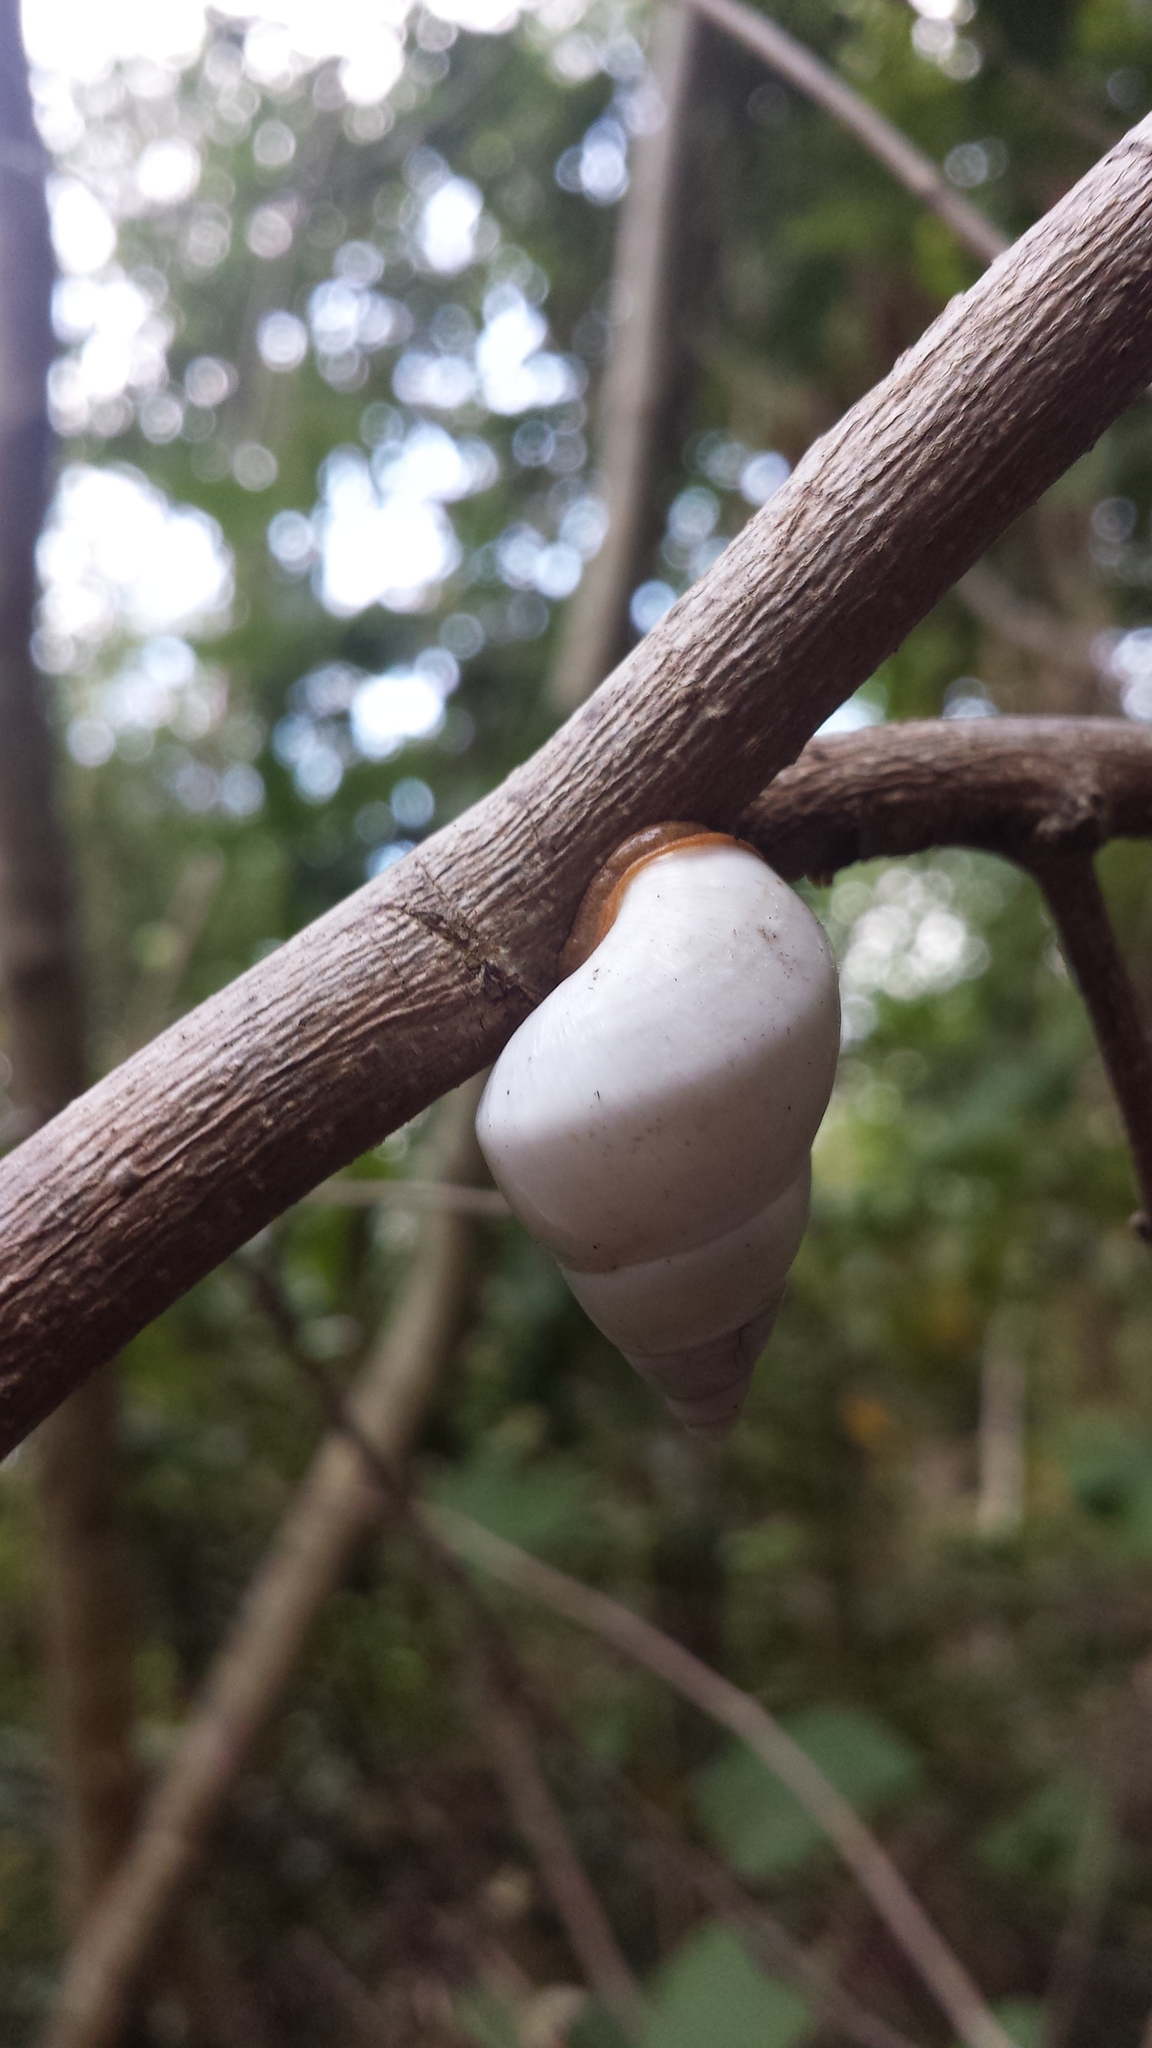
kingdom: Animalia
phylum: Mollusca
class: Gastropoda
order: Stylommatophora
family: Orthalicidae
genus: Liguus
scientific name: Liguus fasciatus
